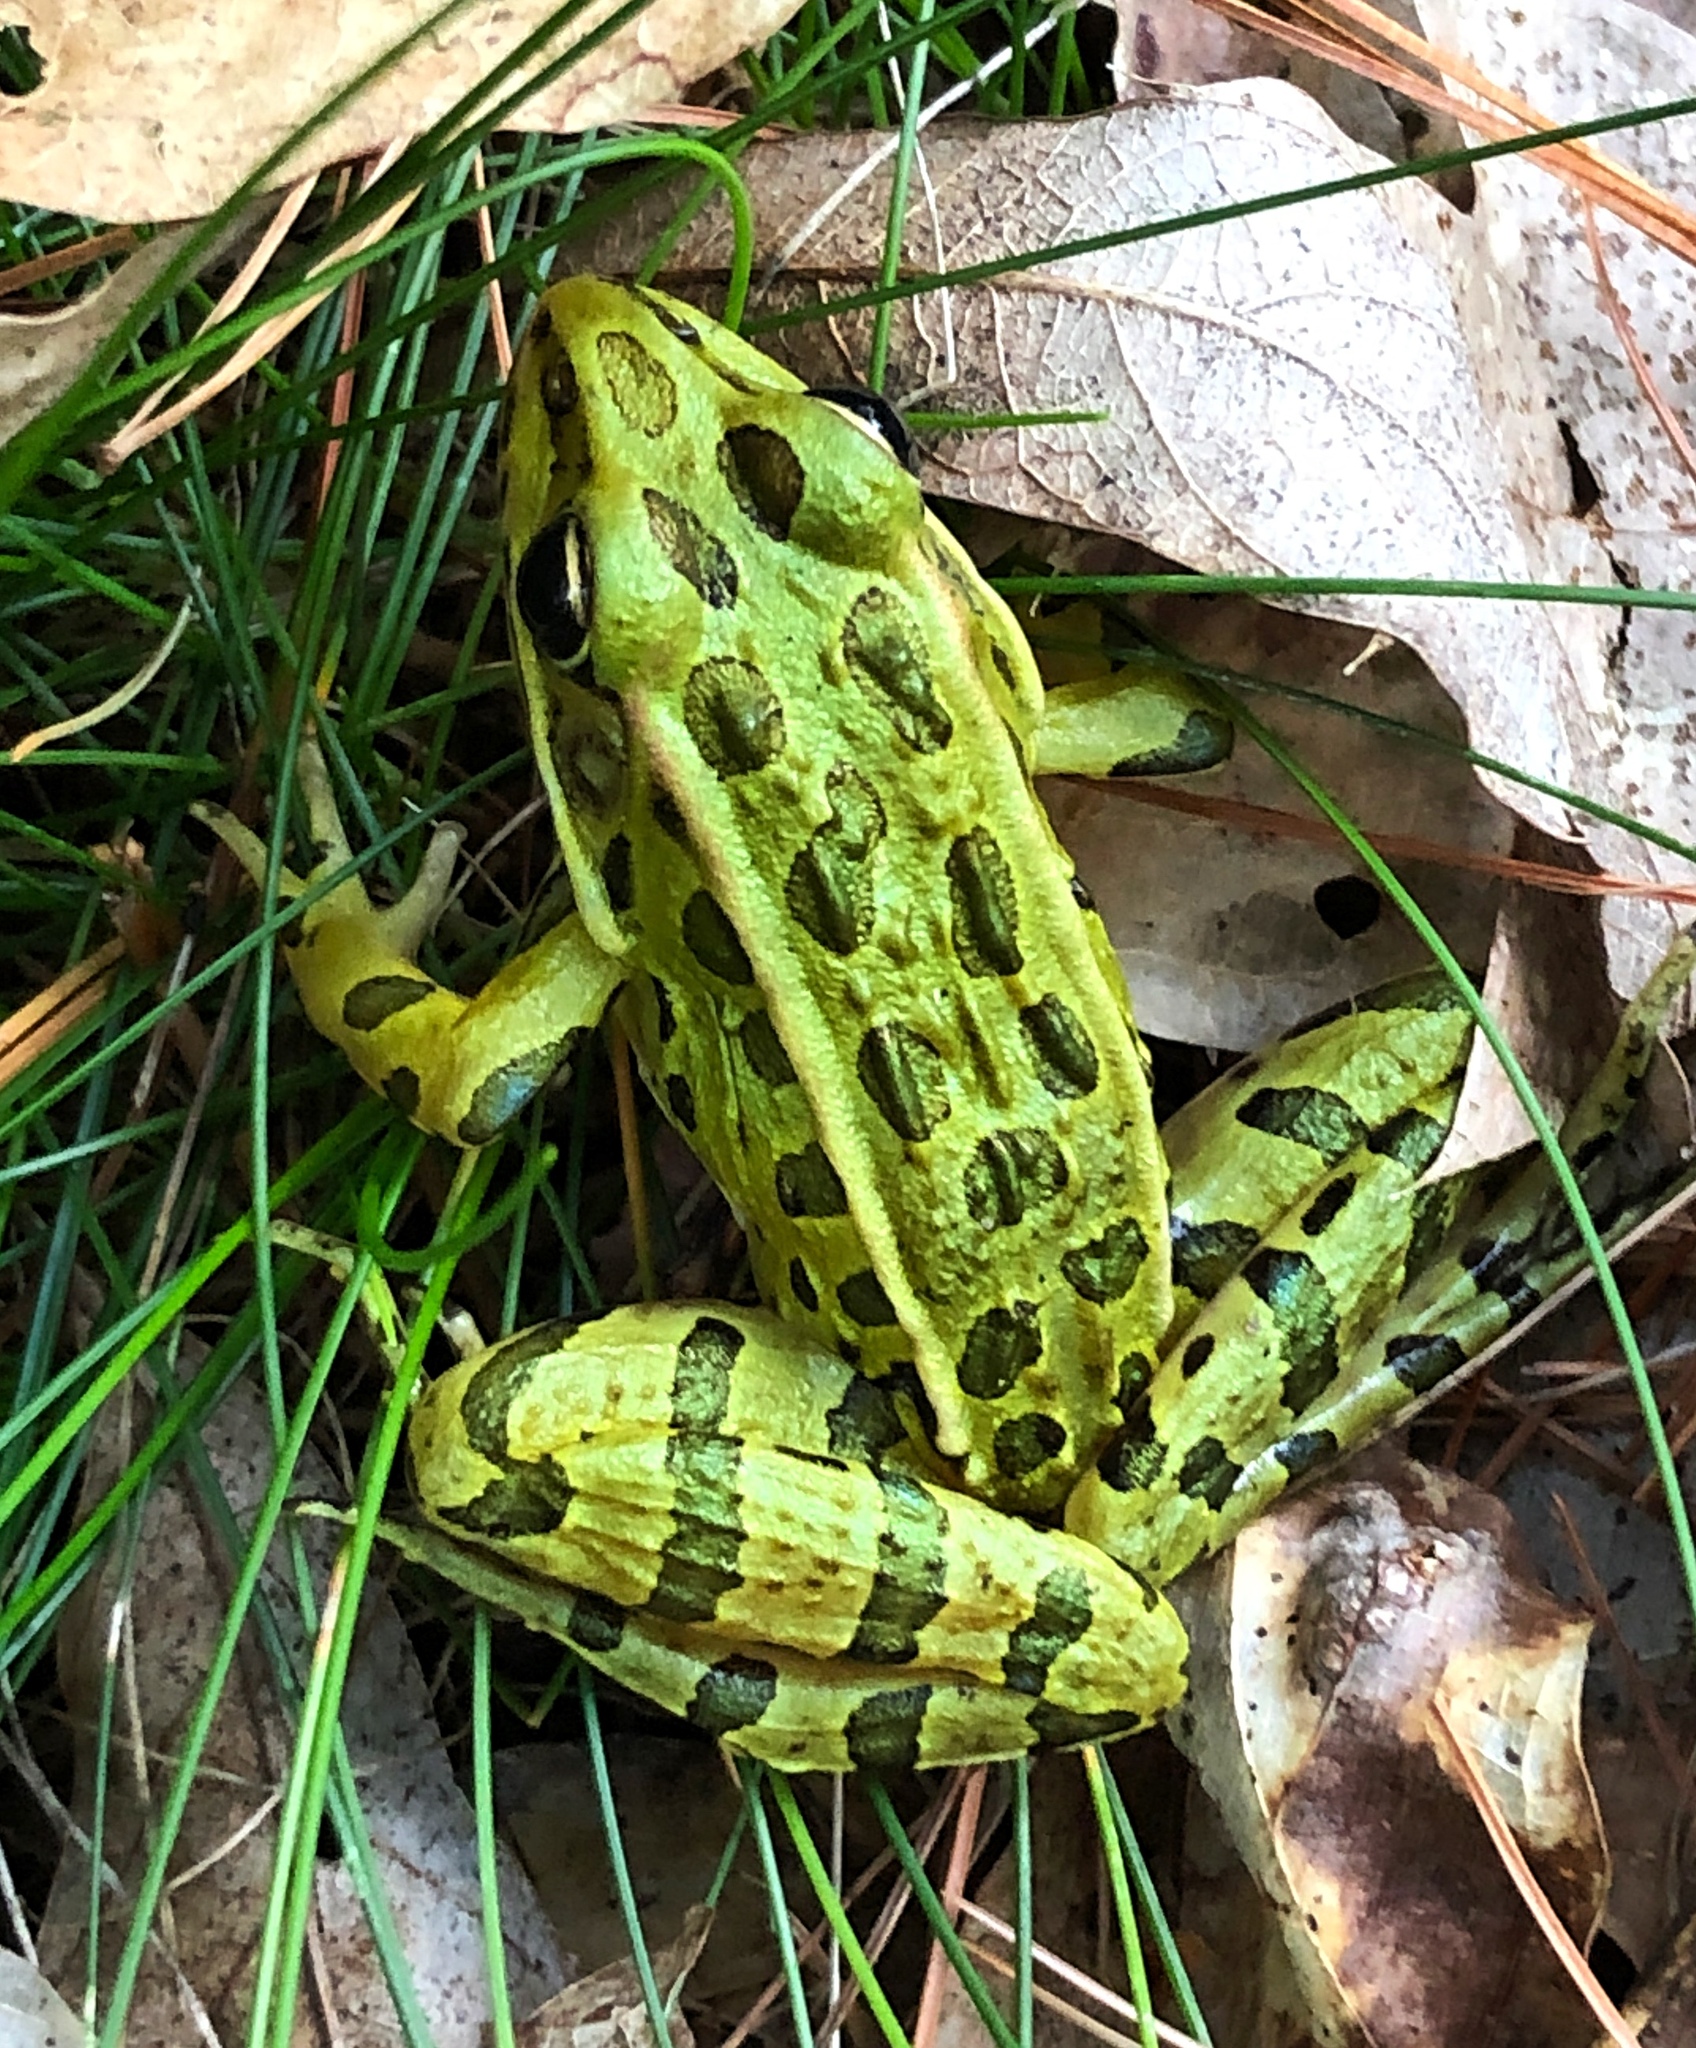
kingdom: Animalia
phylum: Chordata
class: Amphibia
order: Anura
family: Ranidae
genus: Lithobates
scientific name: Lithobates pipiens
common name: Northern leopard frog
